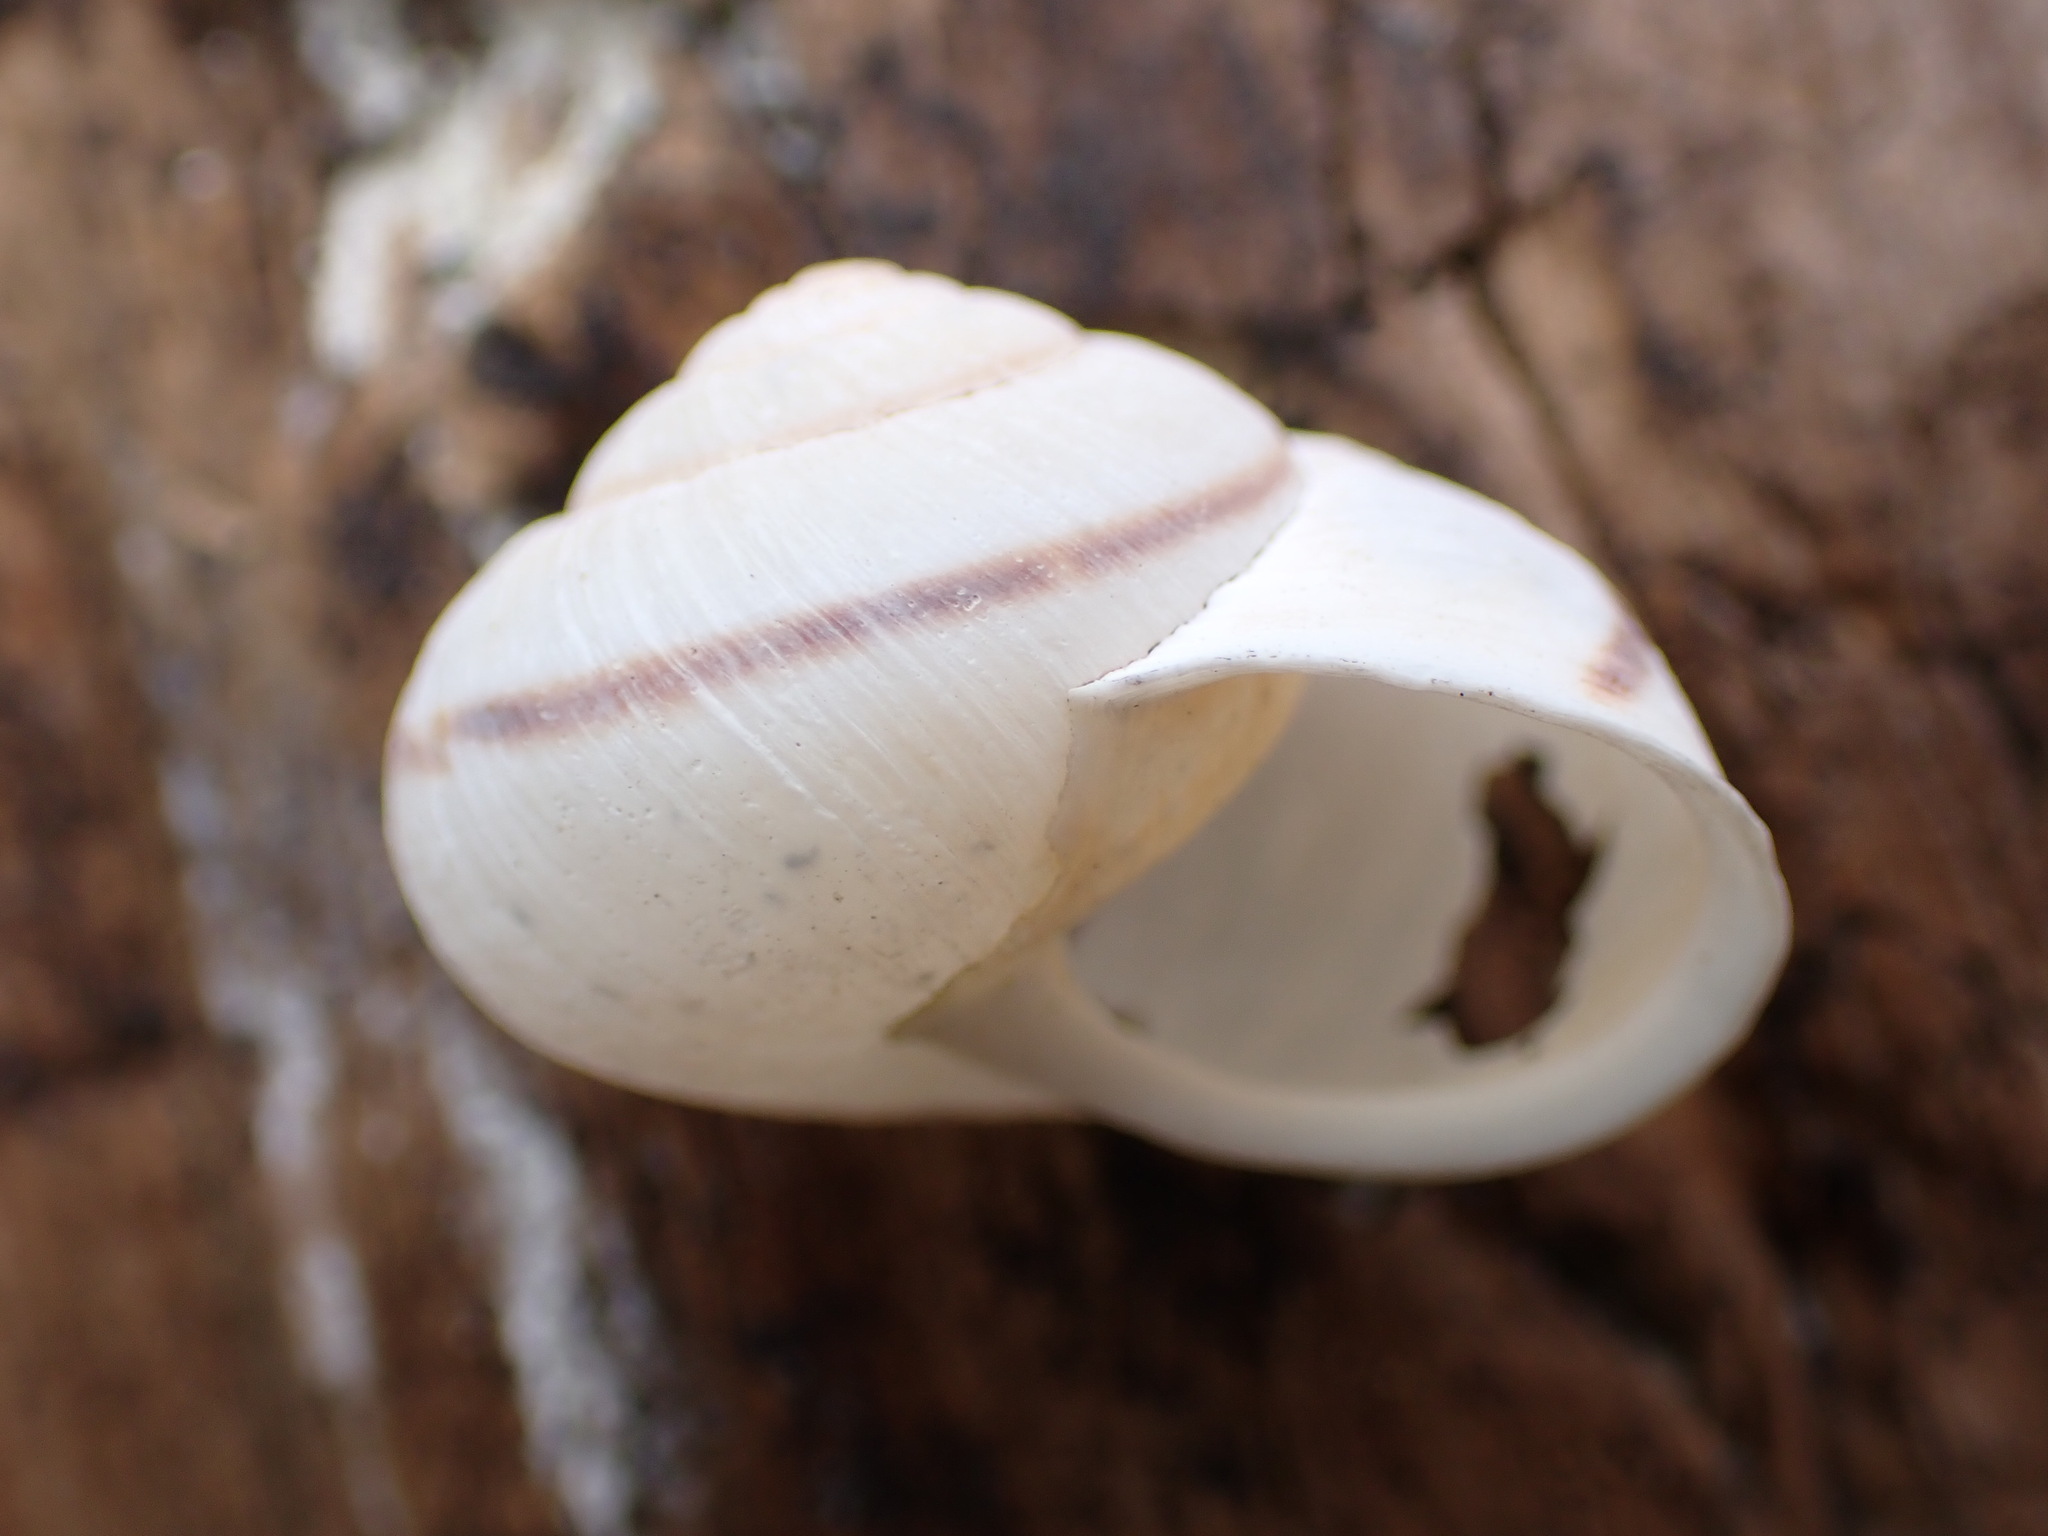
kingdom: Animalia
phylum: Mollusca
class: Gastropoda
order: Stylommatophora
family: Xanthonychidae
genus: Noyo
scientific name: Noyo intersessa
